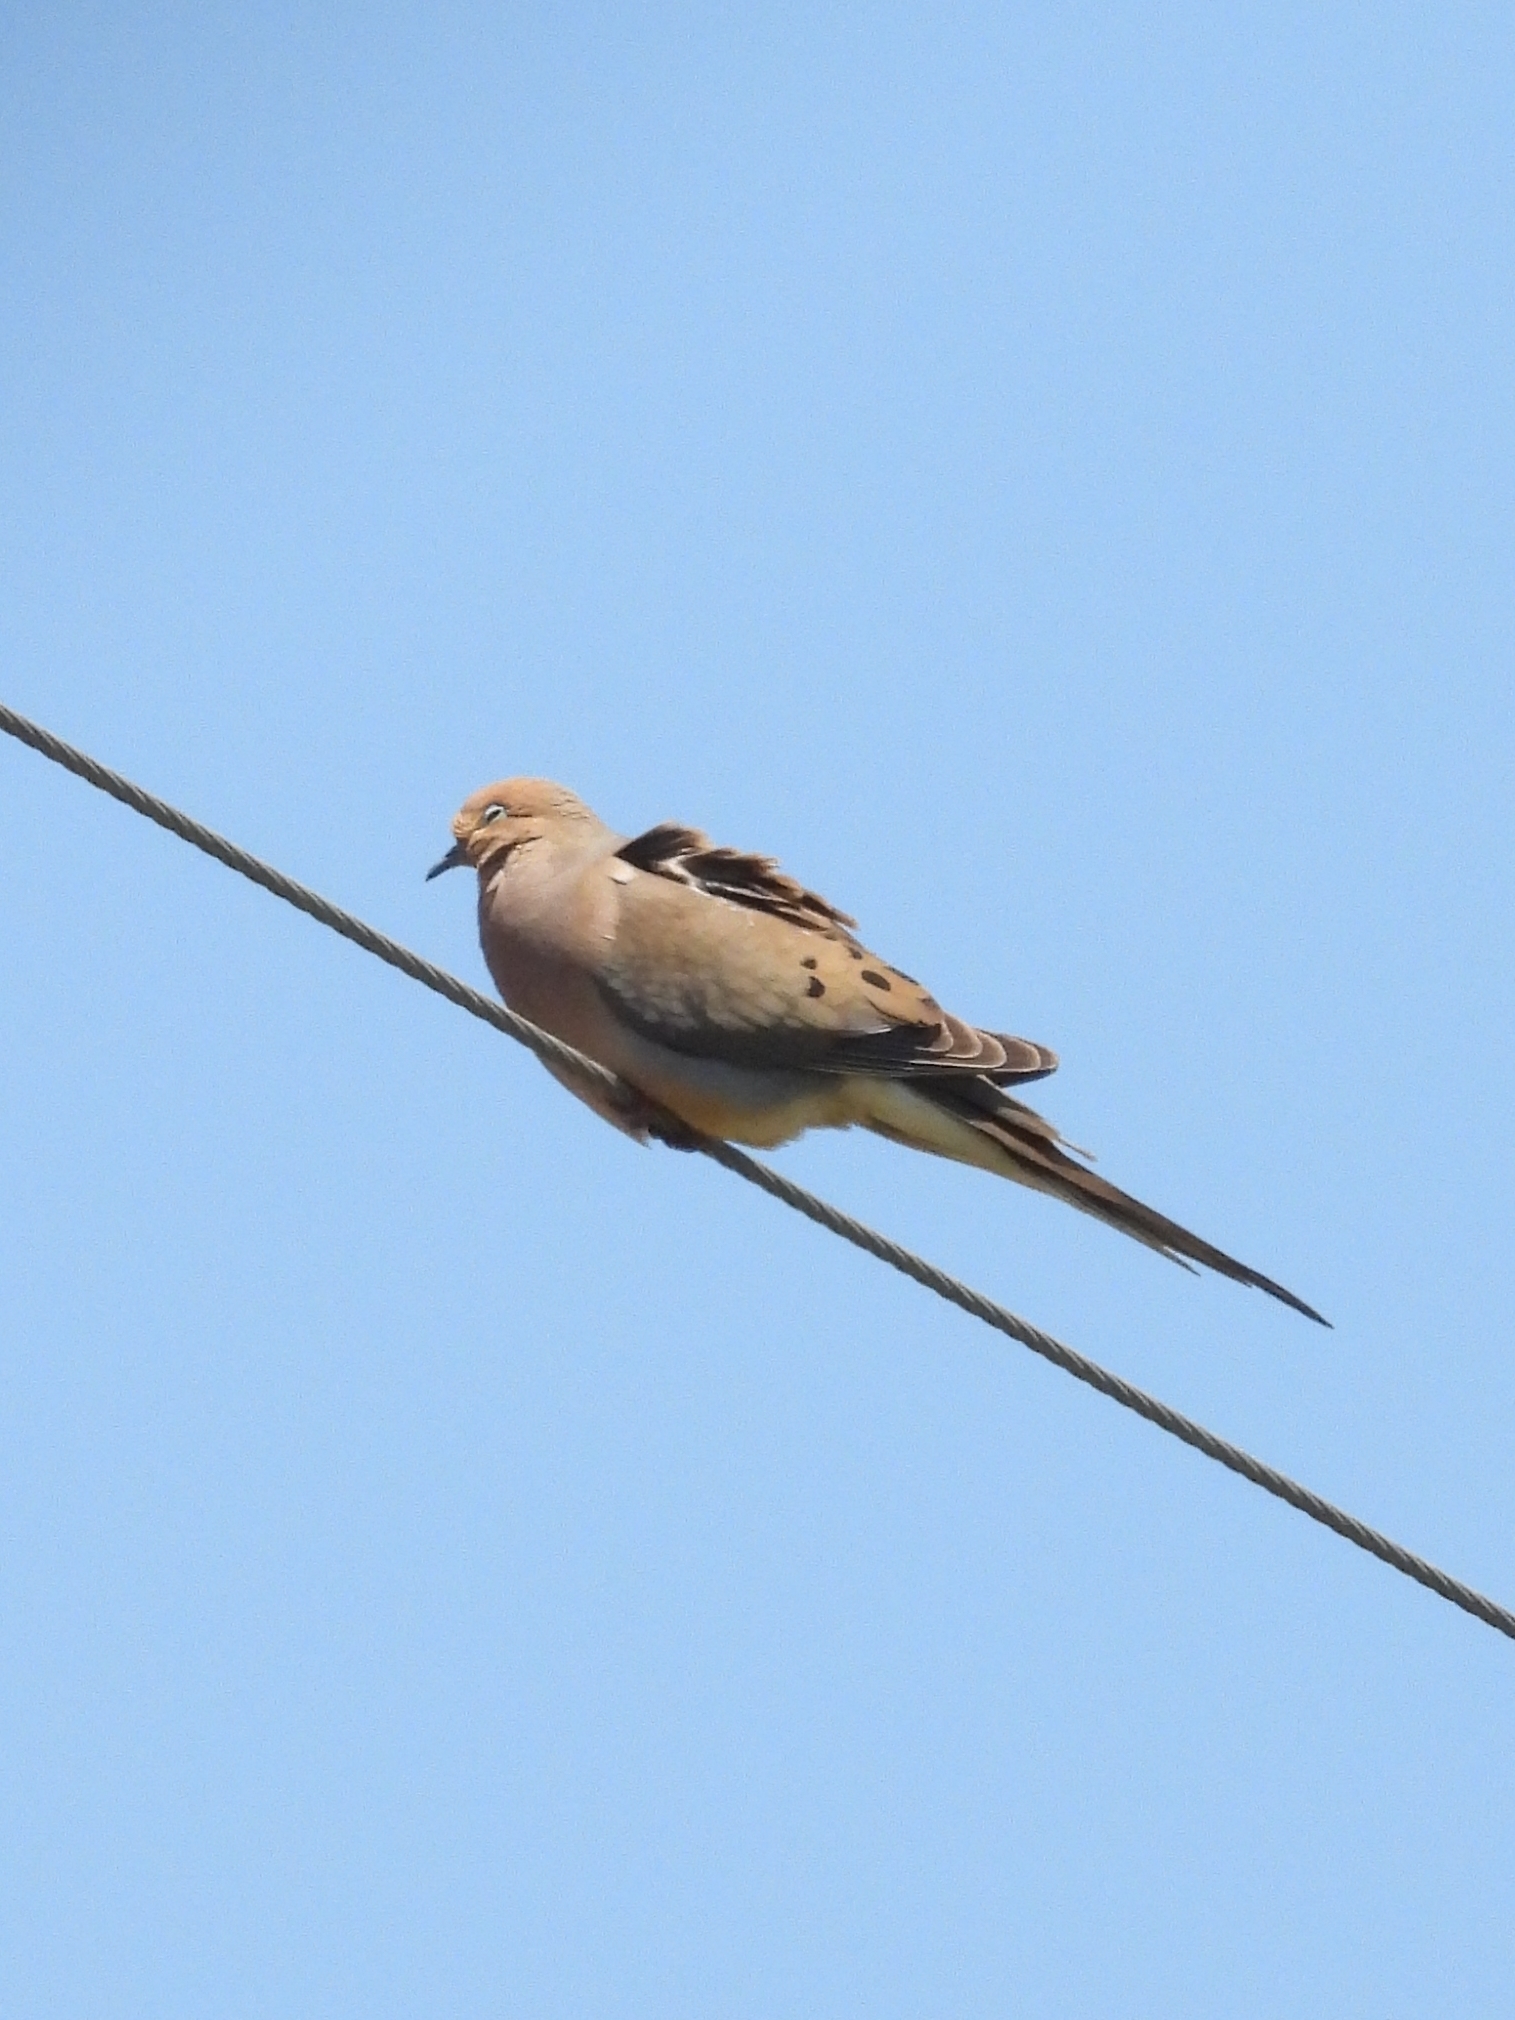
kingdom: Animalia
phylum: Chordata
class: Aves
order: Columbiformes
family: Columbidae
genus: Zenaida
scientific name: Zenaida macroura
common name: Mourning dove
